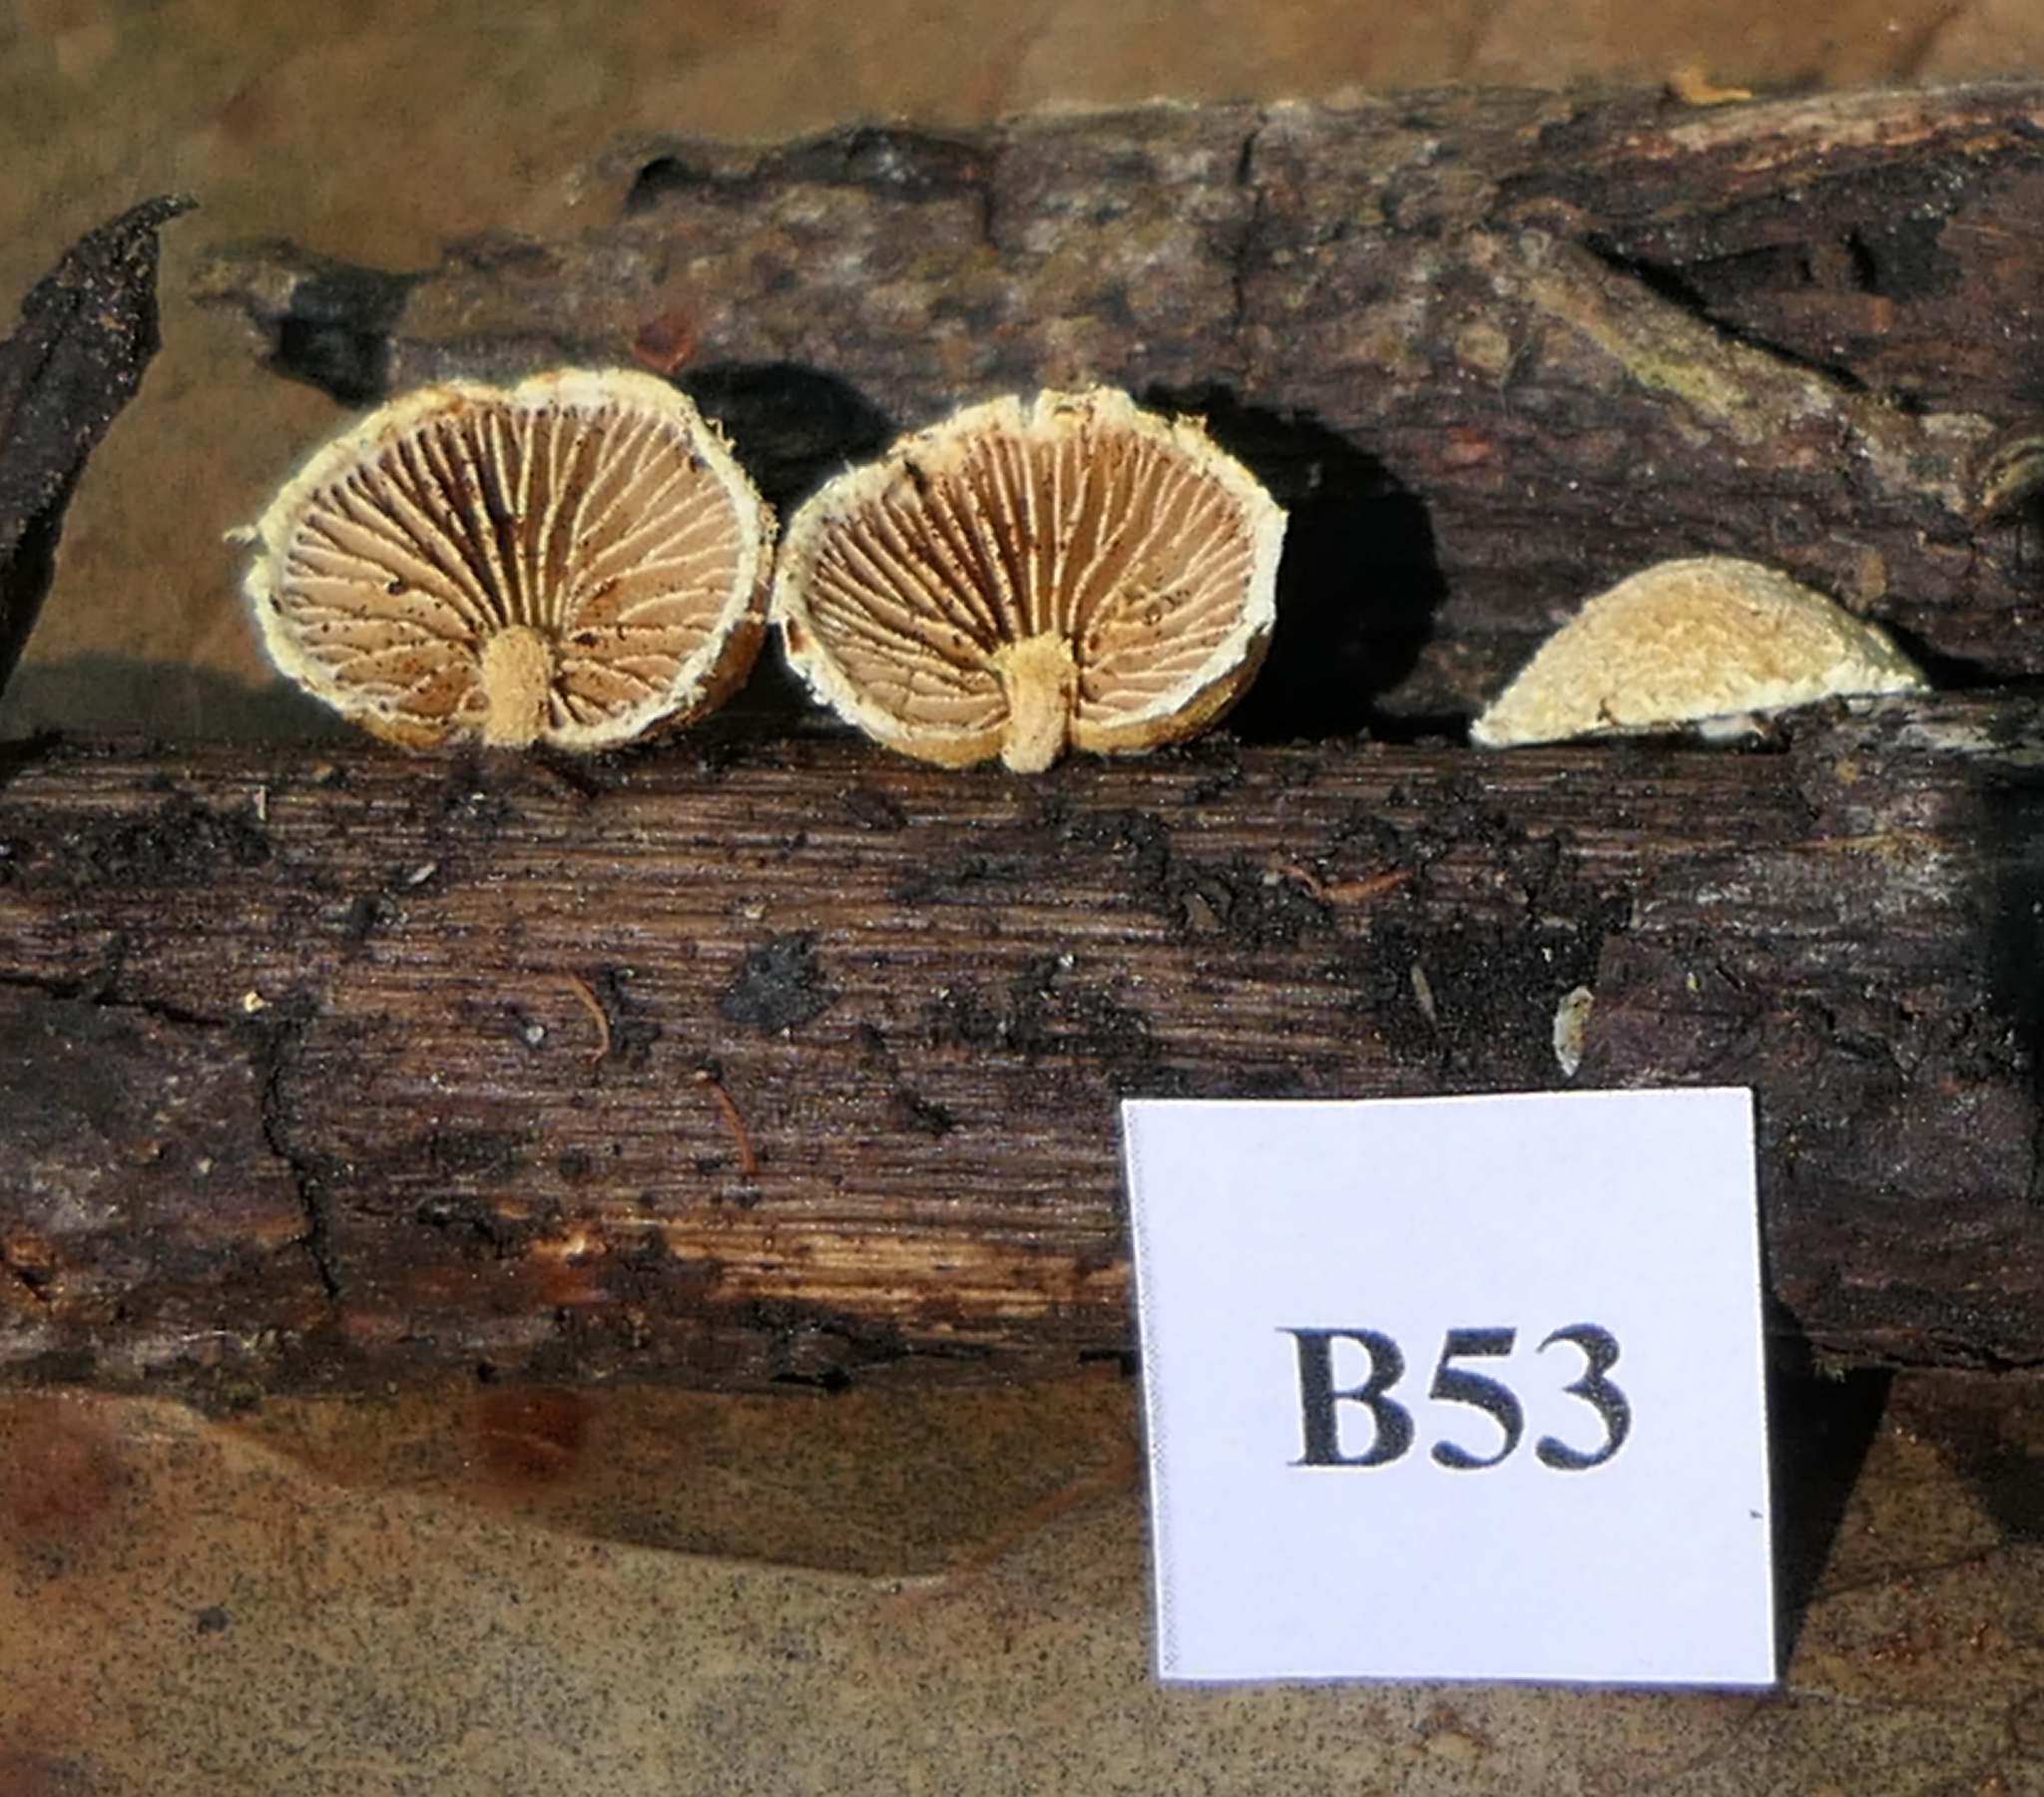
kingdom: Fungi
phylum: Basidiomycota
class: Agaricomycetes
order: Agaricales
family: Crepidotaceae
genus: Pleuroflammula
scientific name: Pleuroflammula praestans
